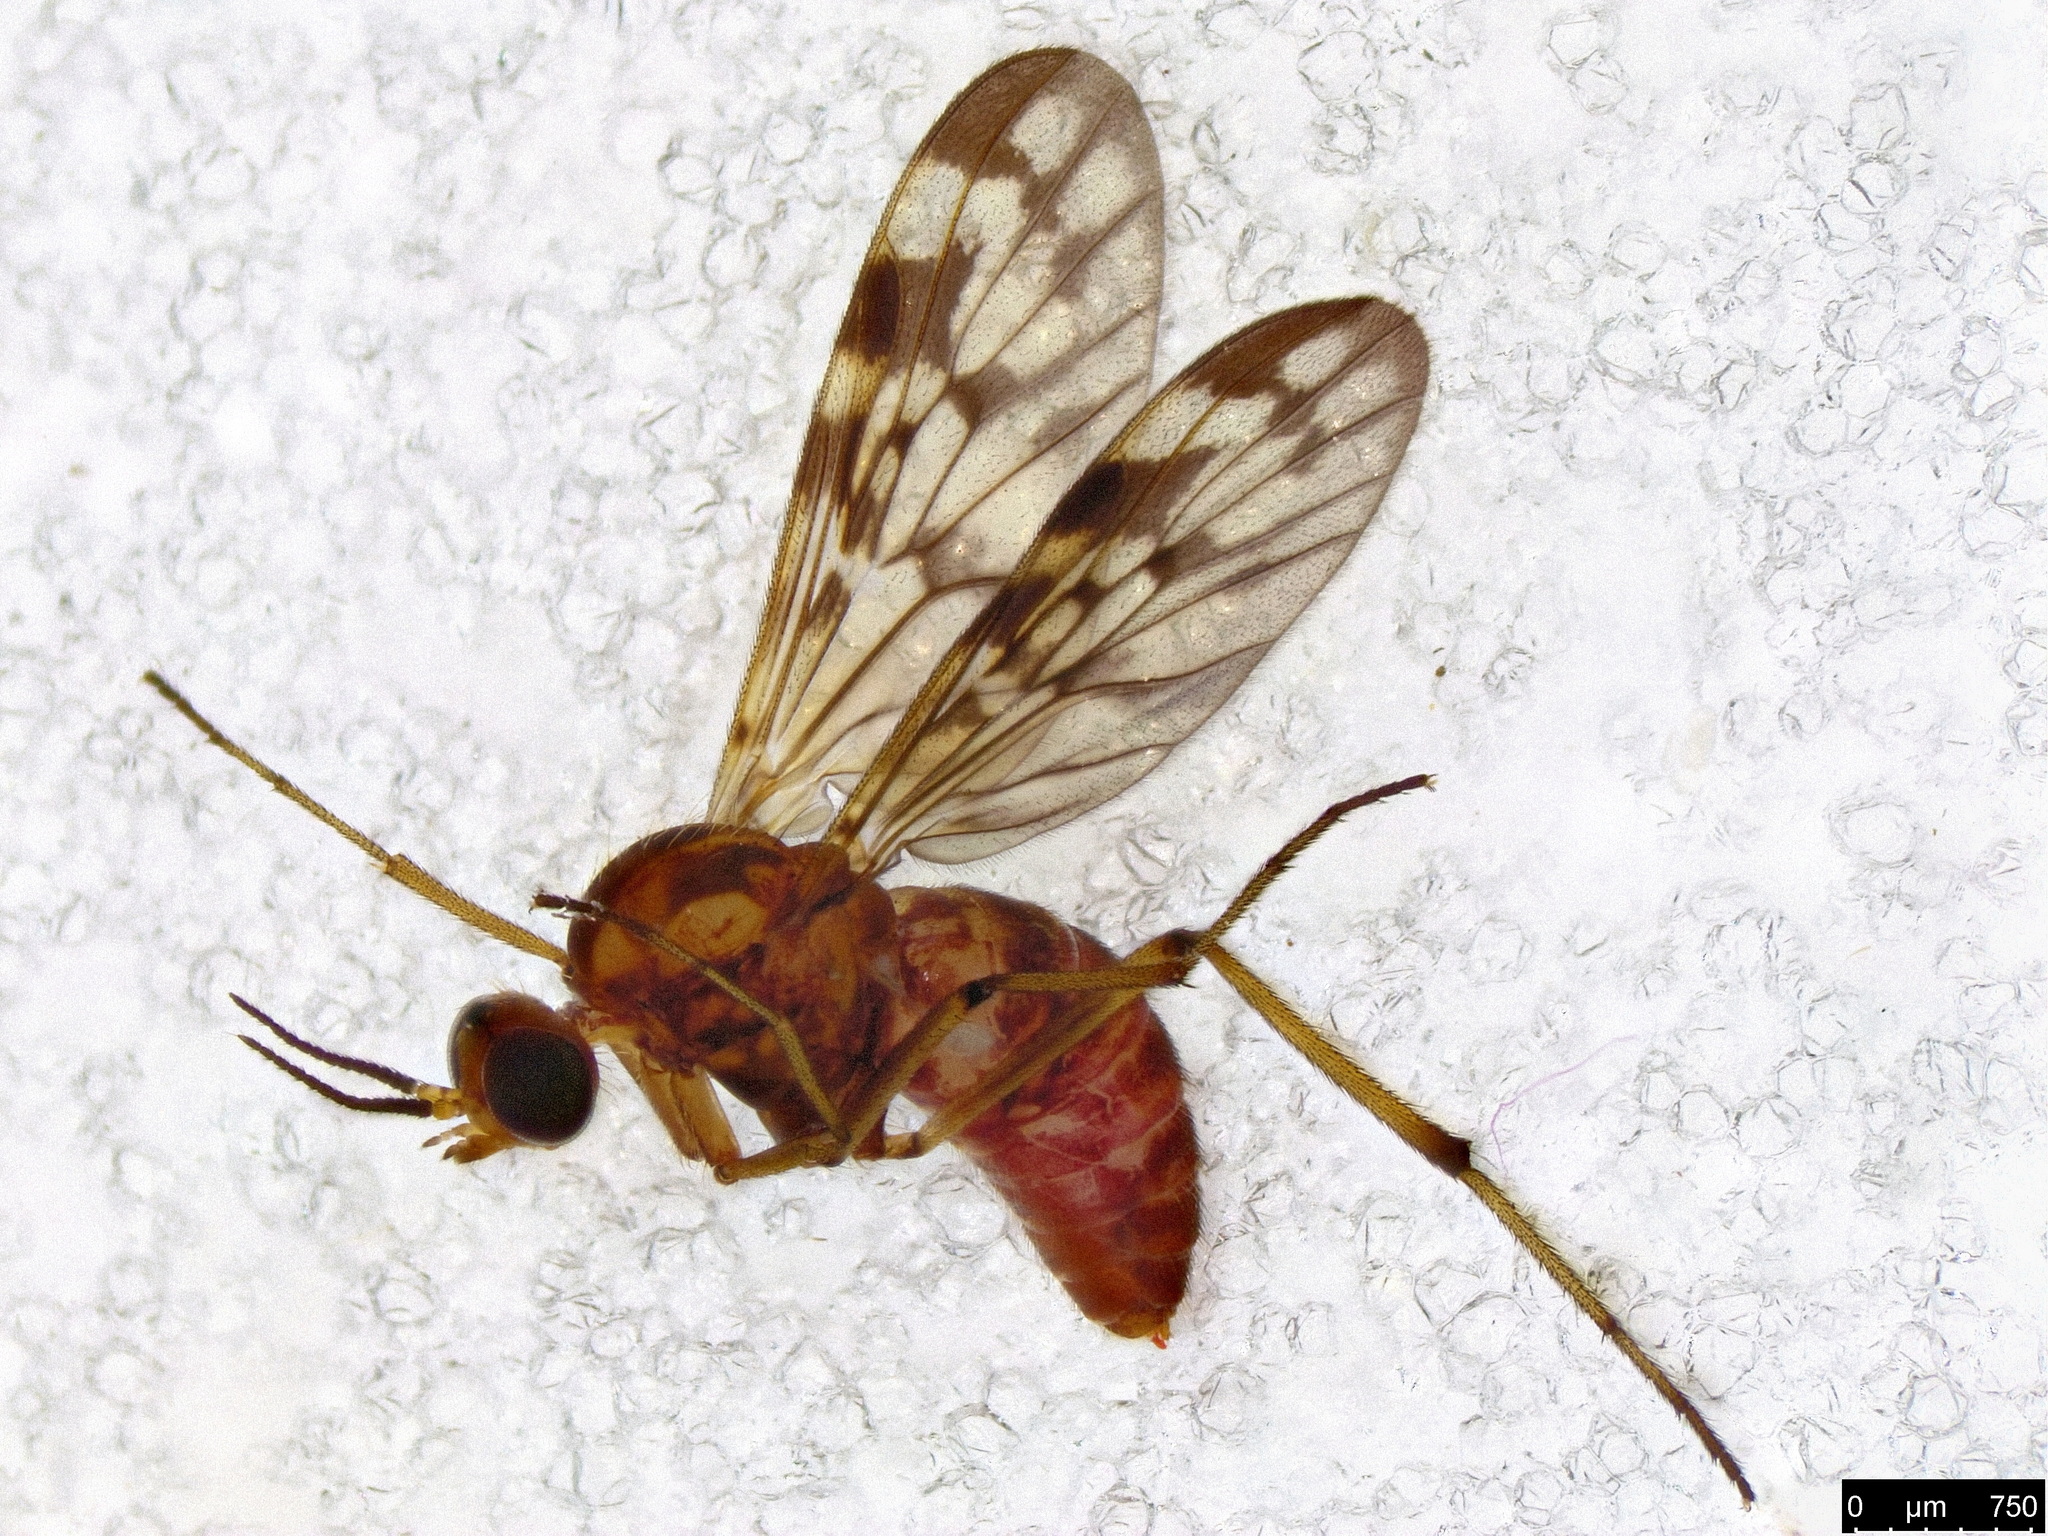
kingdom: Animalia
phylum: Arthropoda
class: Insecta
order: Diptera
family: Anisopodidae
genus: Sylvicola
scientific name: Sylvicola dubius
